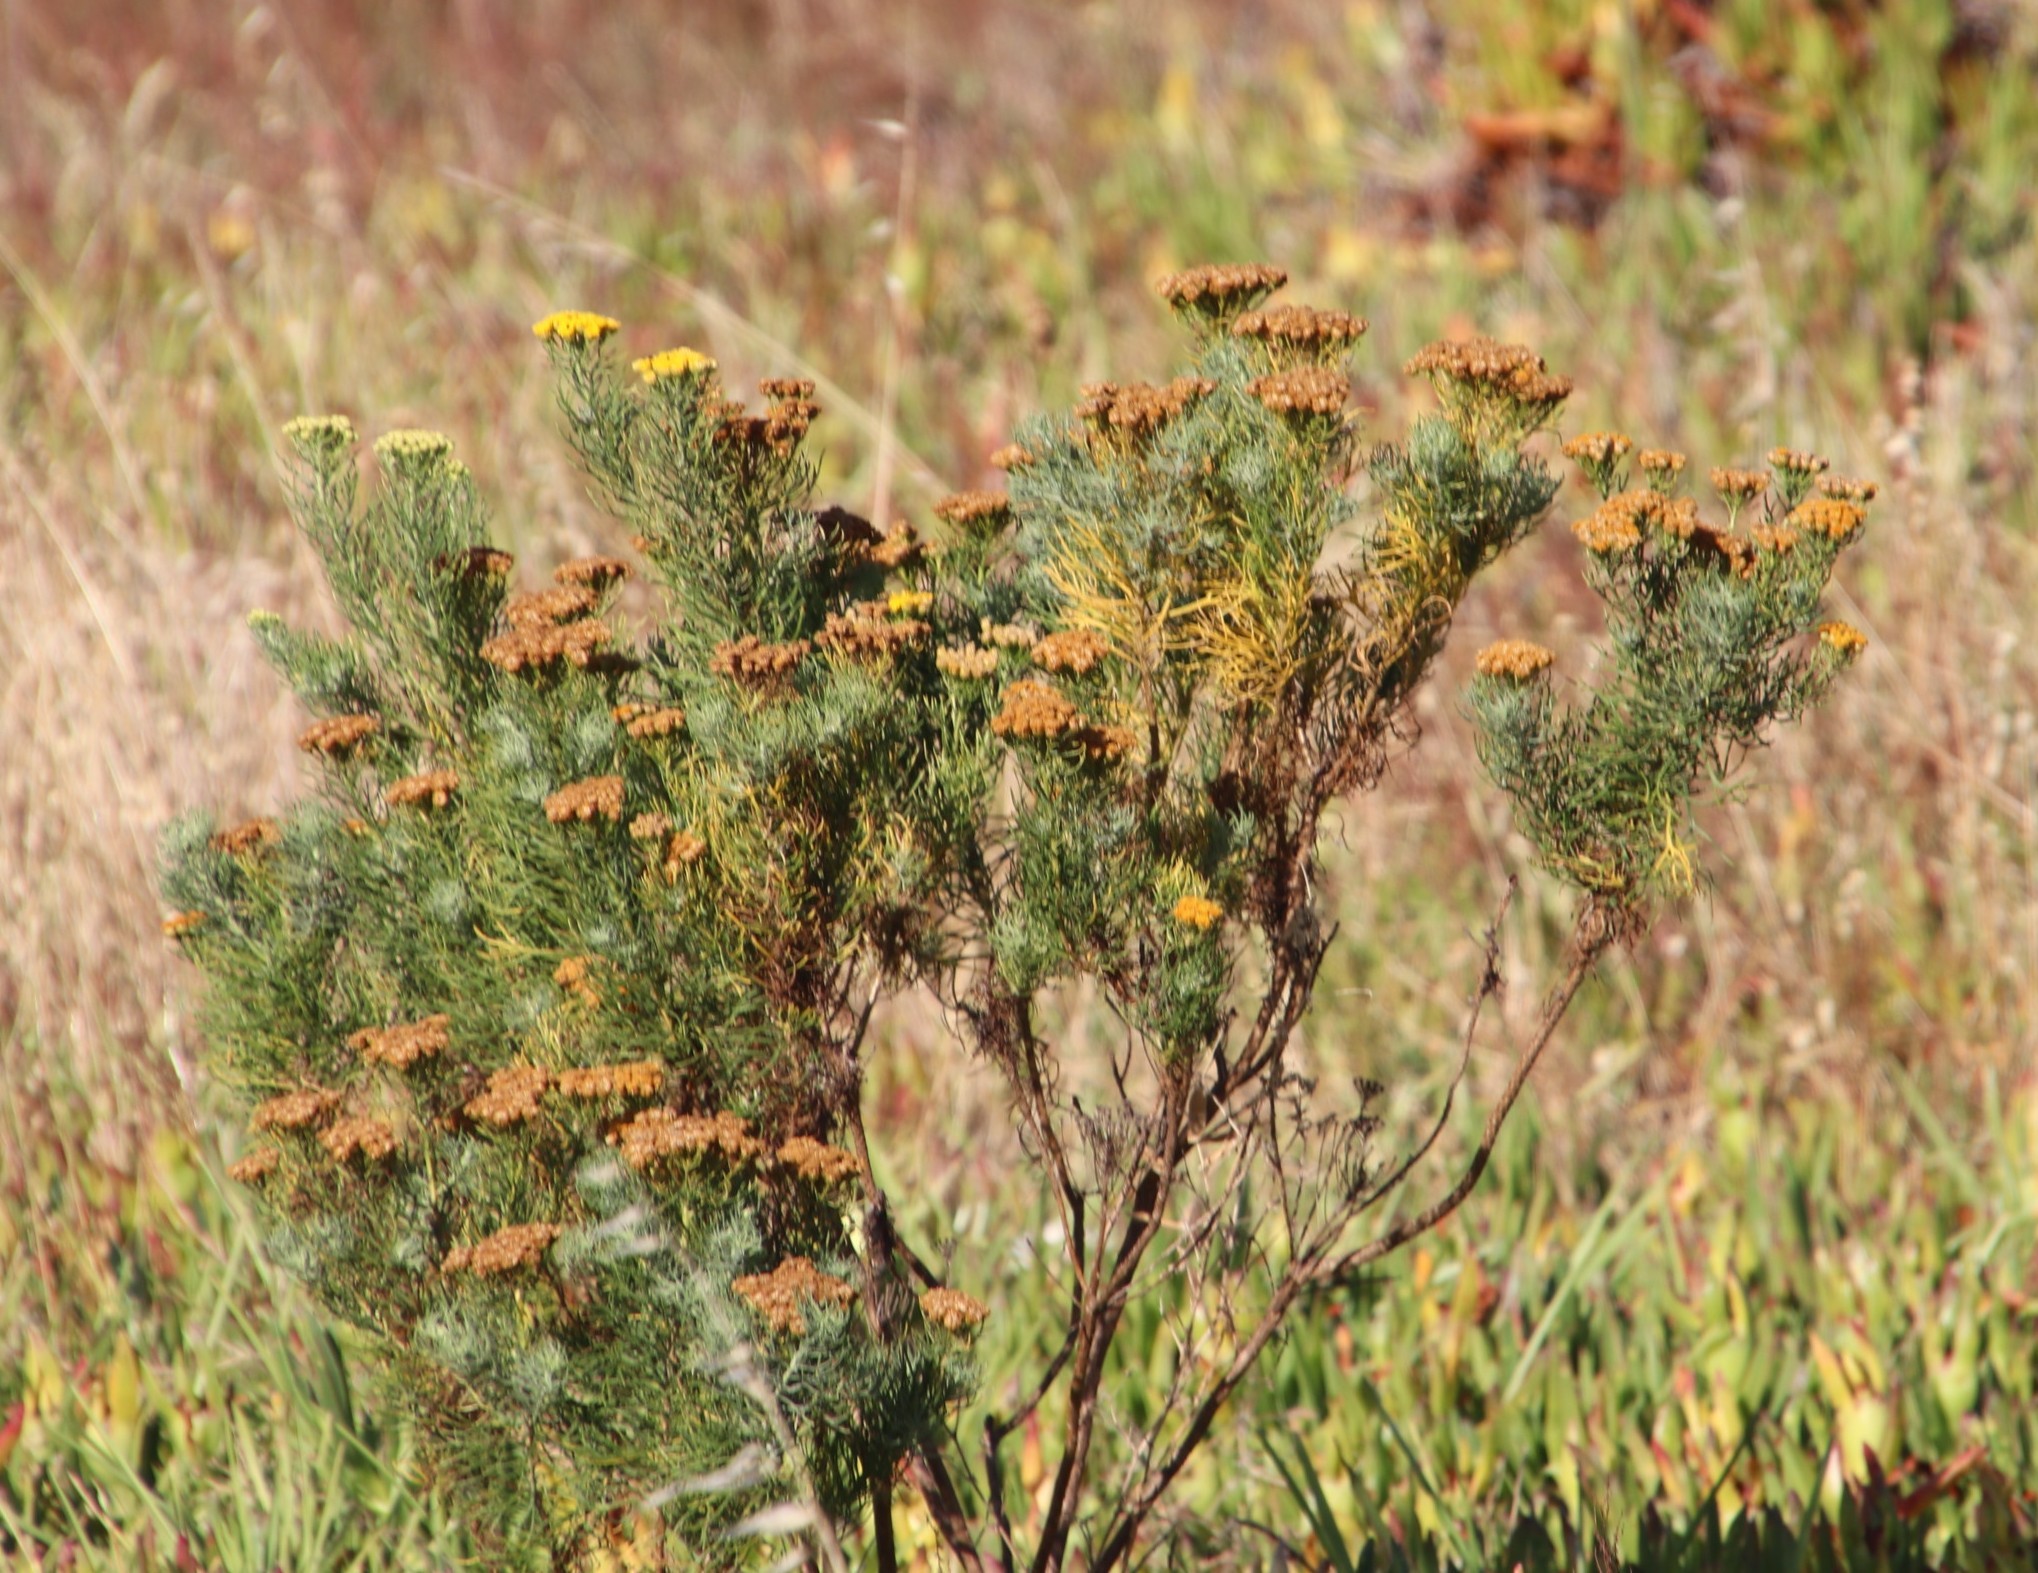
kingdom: Plantae
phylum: Tracheophyta
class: Magnoliopsida
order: Asterales
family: Asteraceae
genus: Athanasia
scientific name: Athanasia crithmifolia
